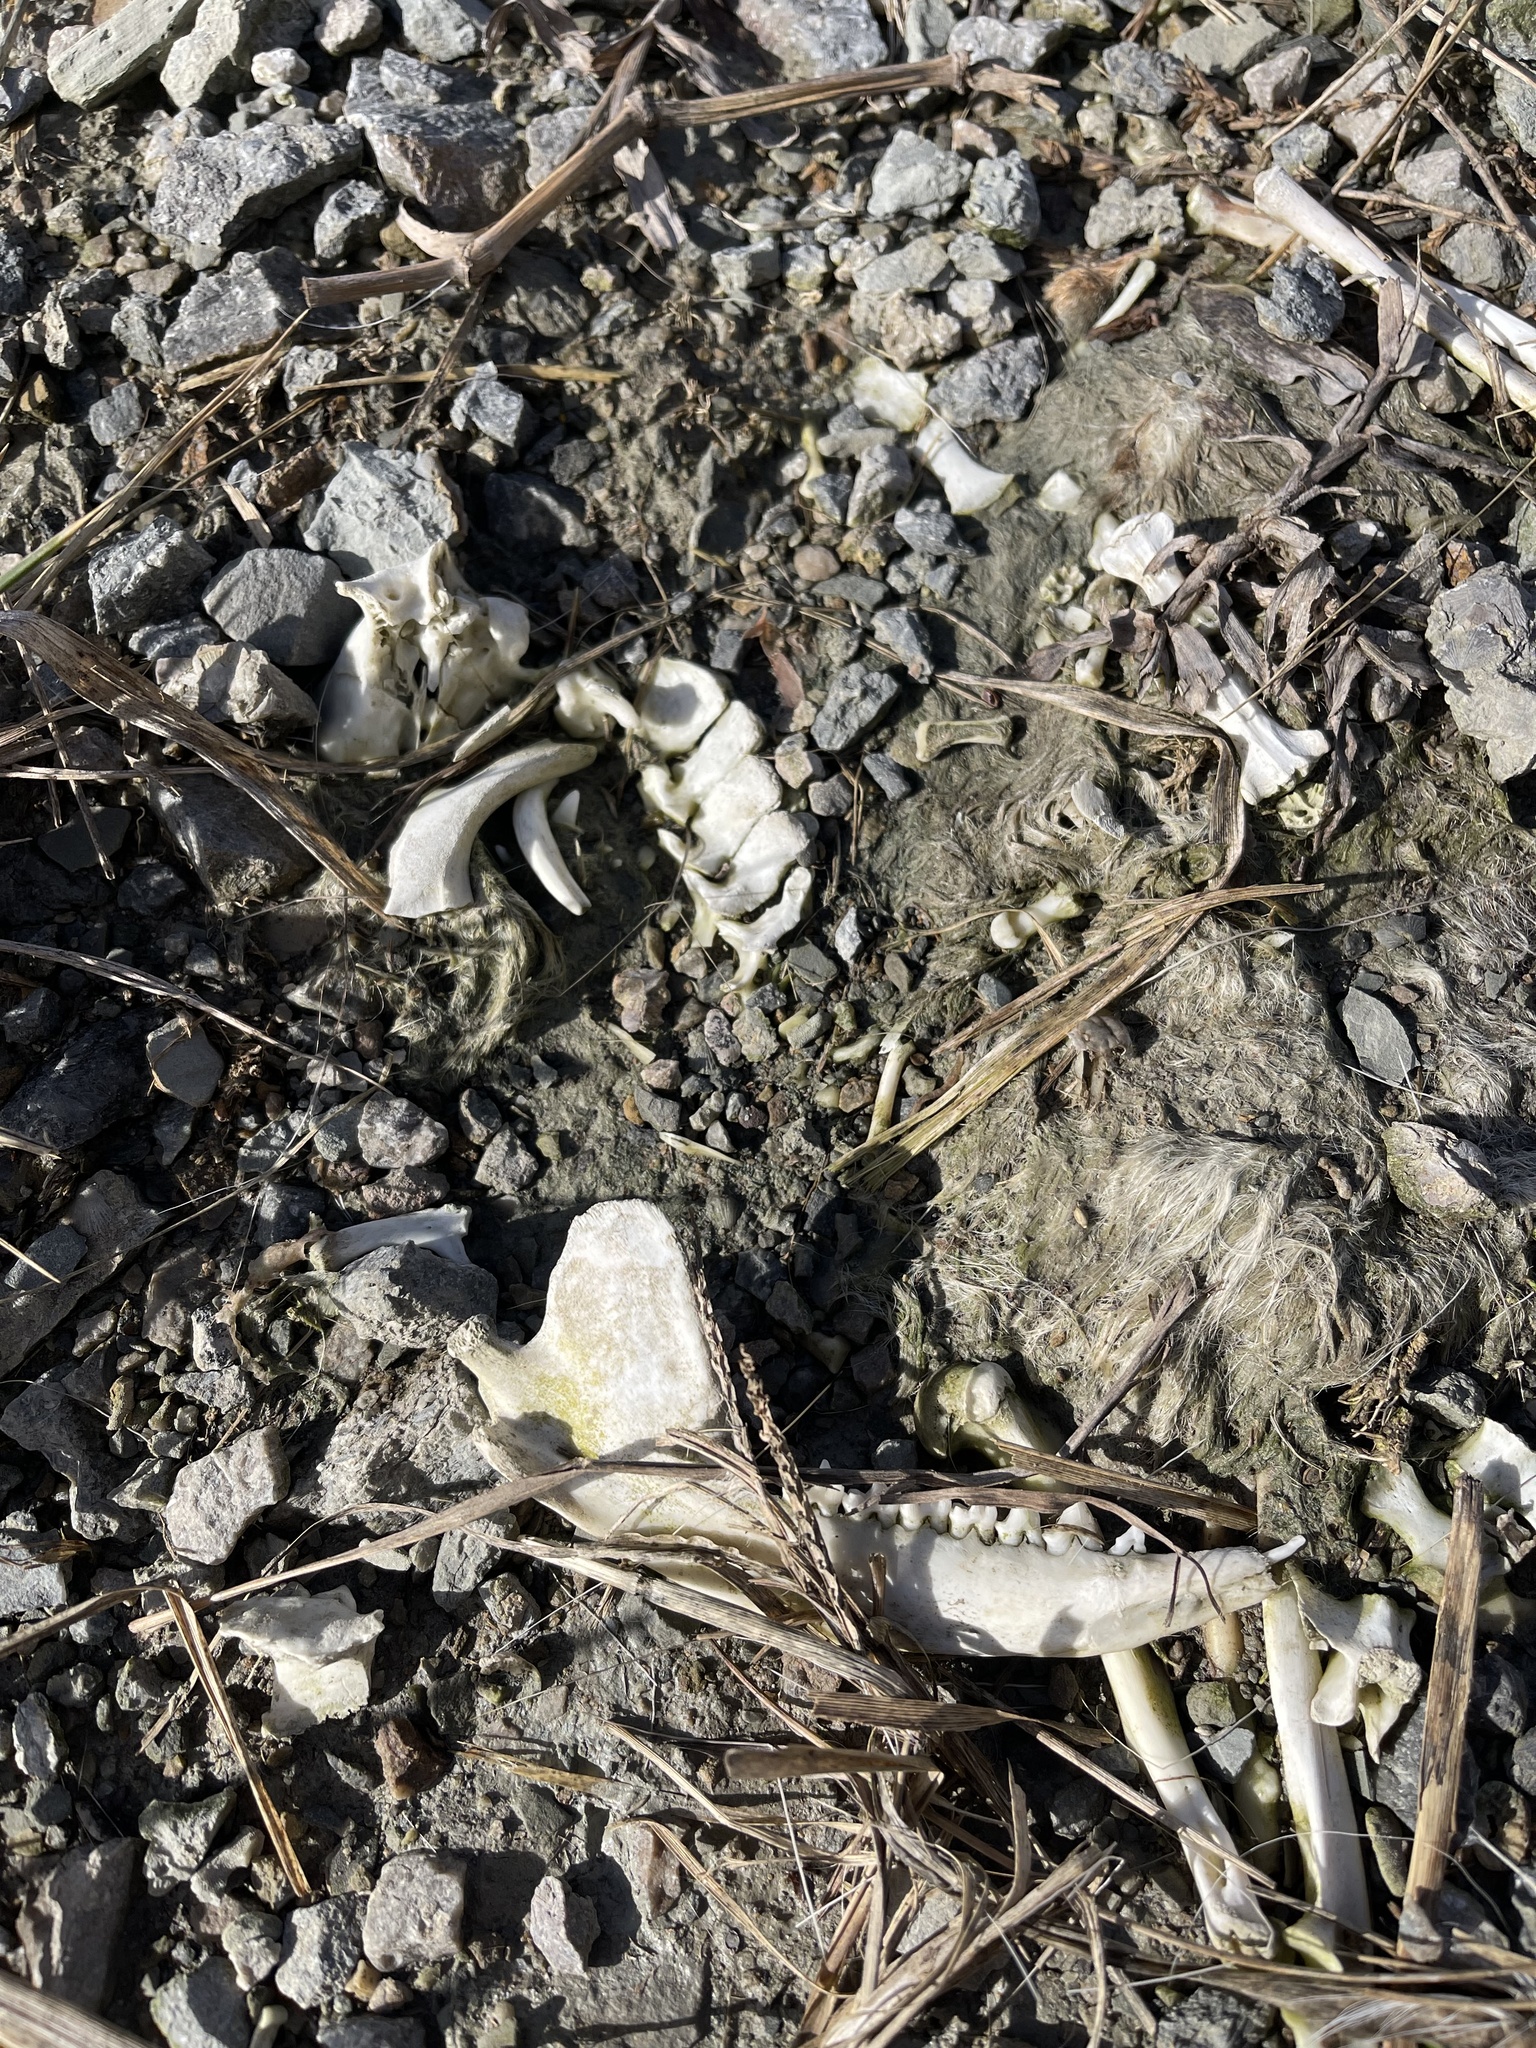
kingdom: Animalia
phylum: Chordata
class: Mammalia
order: Didelphimorphia
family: Didelphidae
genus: Didelphis
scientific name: Didelphis virginiana
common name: Virginia opossum
